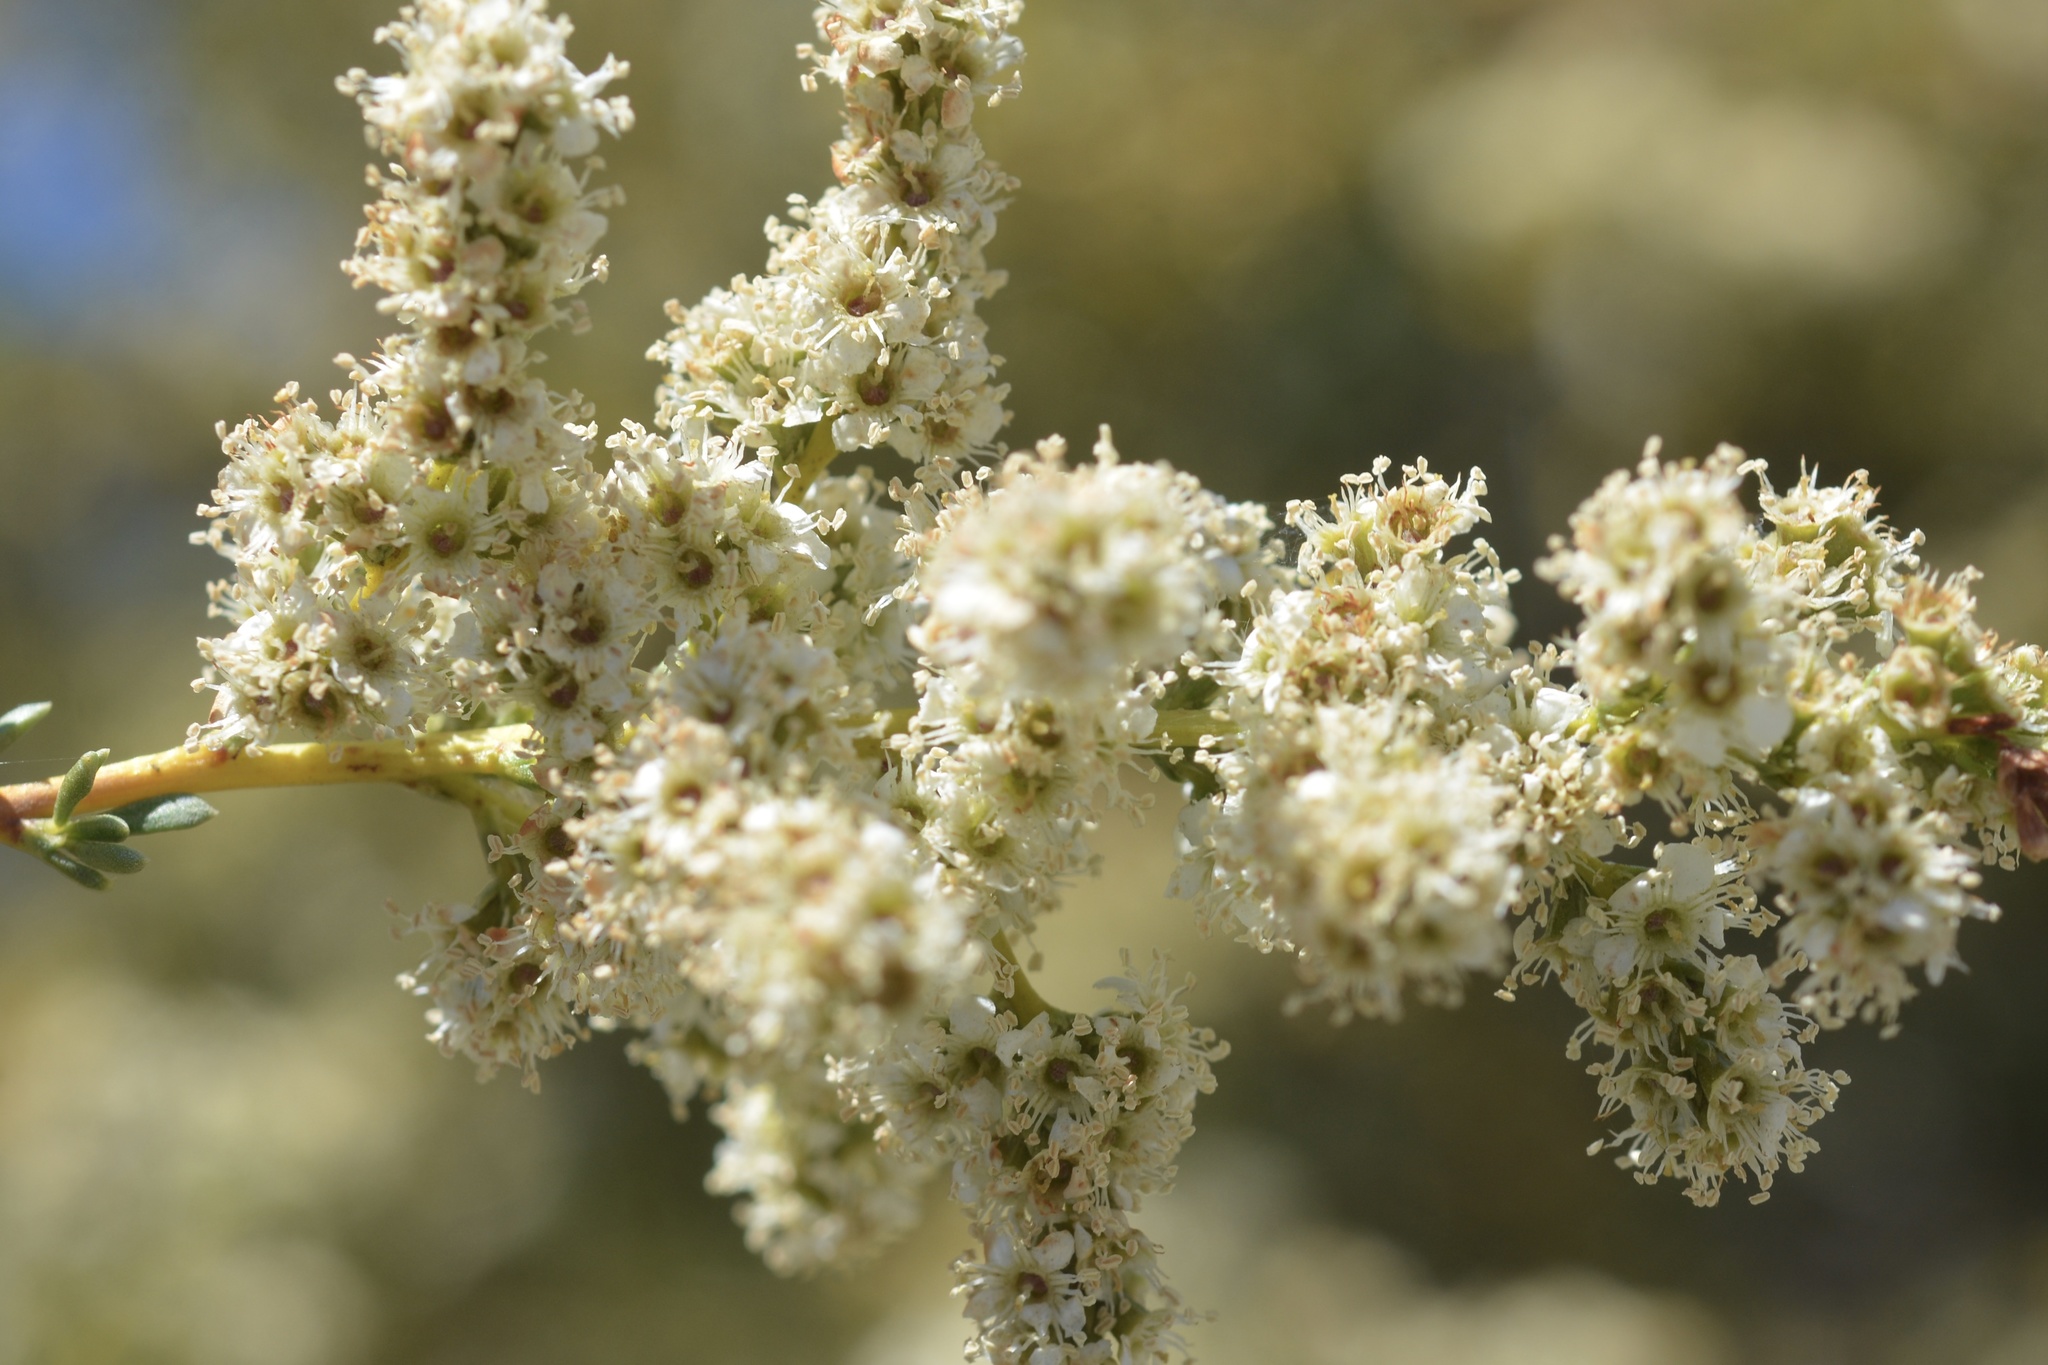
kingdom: Plantae
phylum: Tracheophyta
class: Magnoliopsida
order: Rosales
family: Rosaceae
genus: Adenostoma
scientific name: Adenostoma fasciculatum
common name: Chamise
